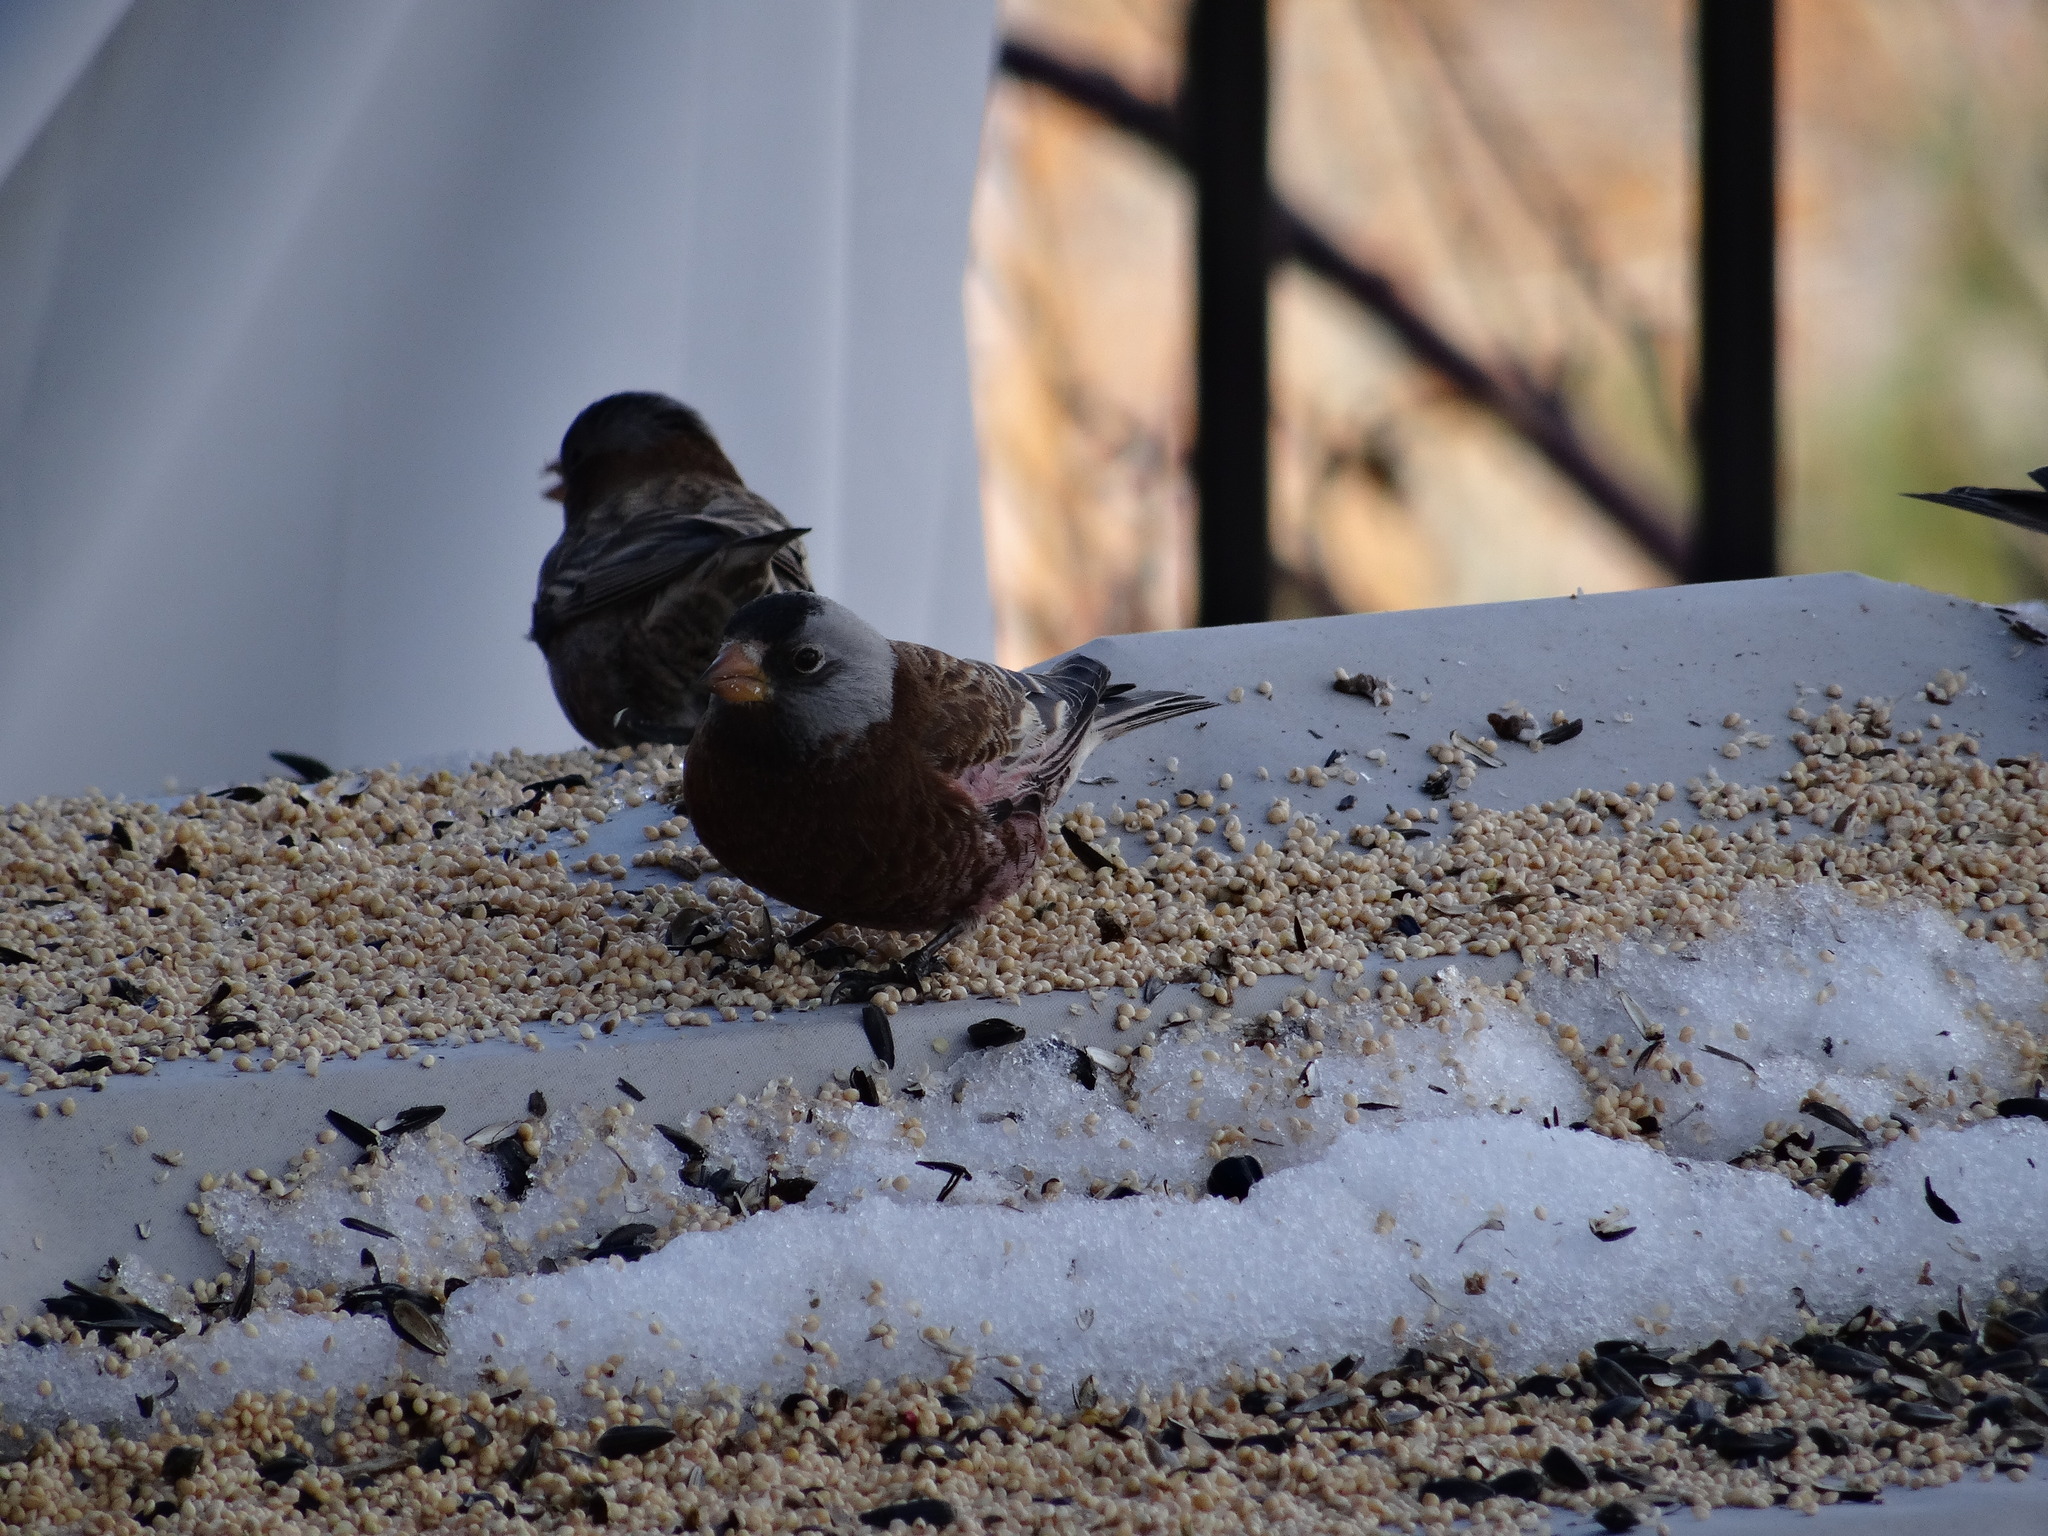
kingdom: Animalia
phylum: Chordata
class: Aves
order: Passeriformes
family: Fringillidae
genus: Leucosticte
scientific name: Leucosticte tephrocotis
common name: Gray-crowned rosy-finch
